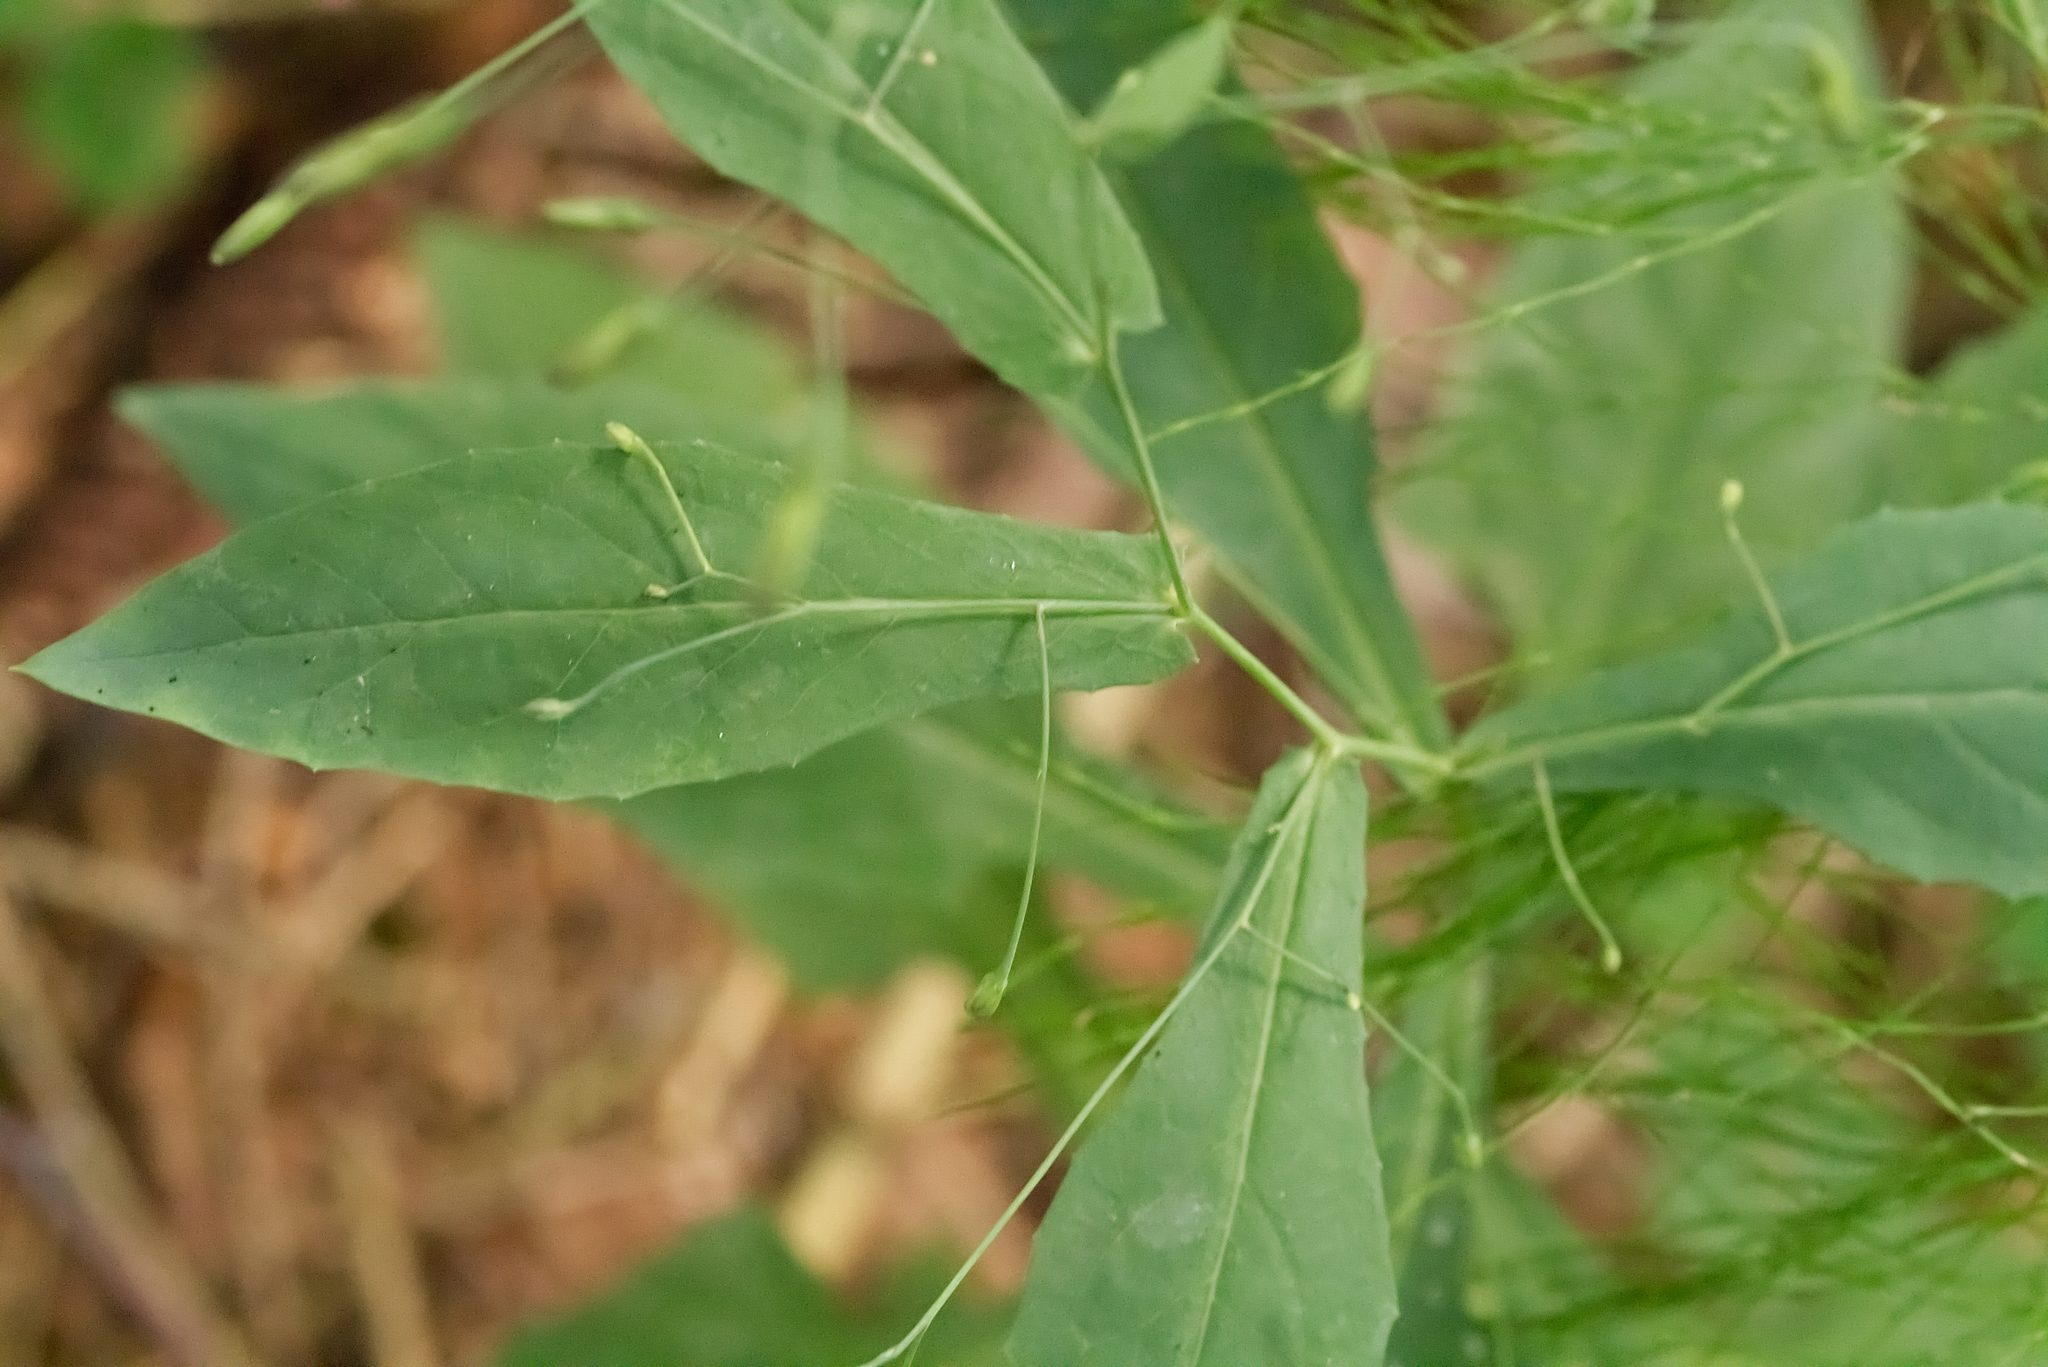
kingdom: Plantae
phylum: Tracheophyta
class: Magnoliopsida
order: Asterales
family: Asteraceae
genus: Prenanthes
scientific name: Prenanthes purpurea
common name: Purple lettuce
